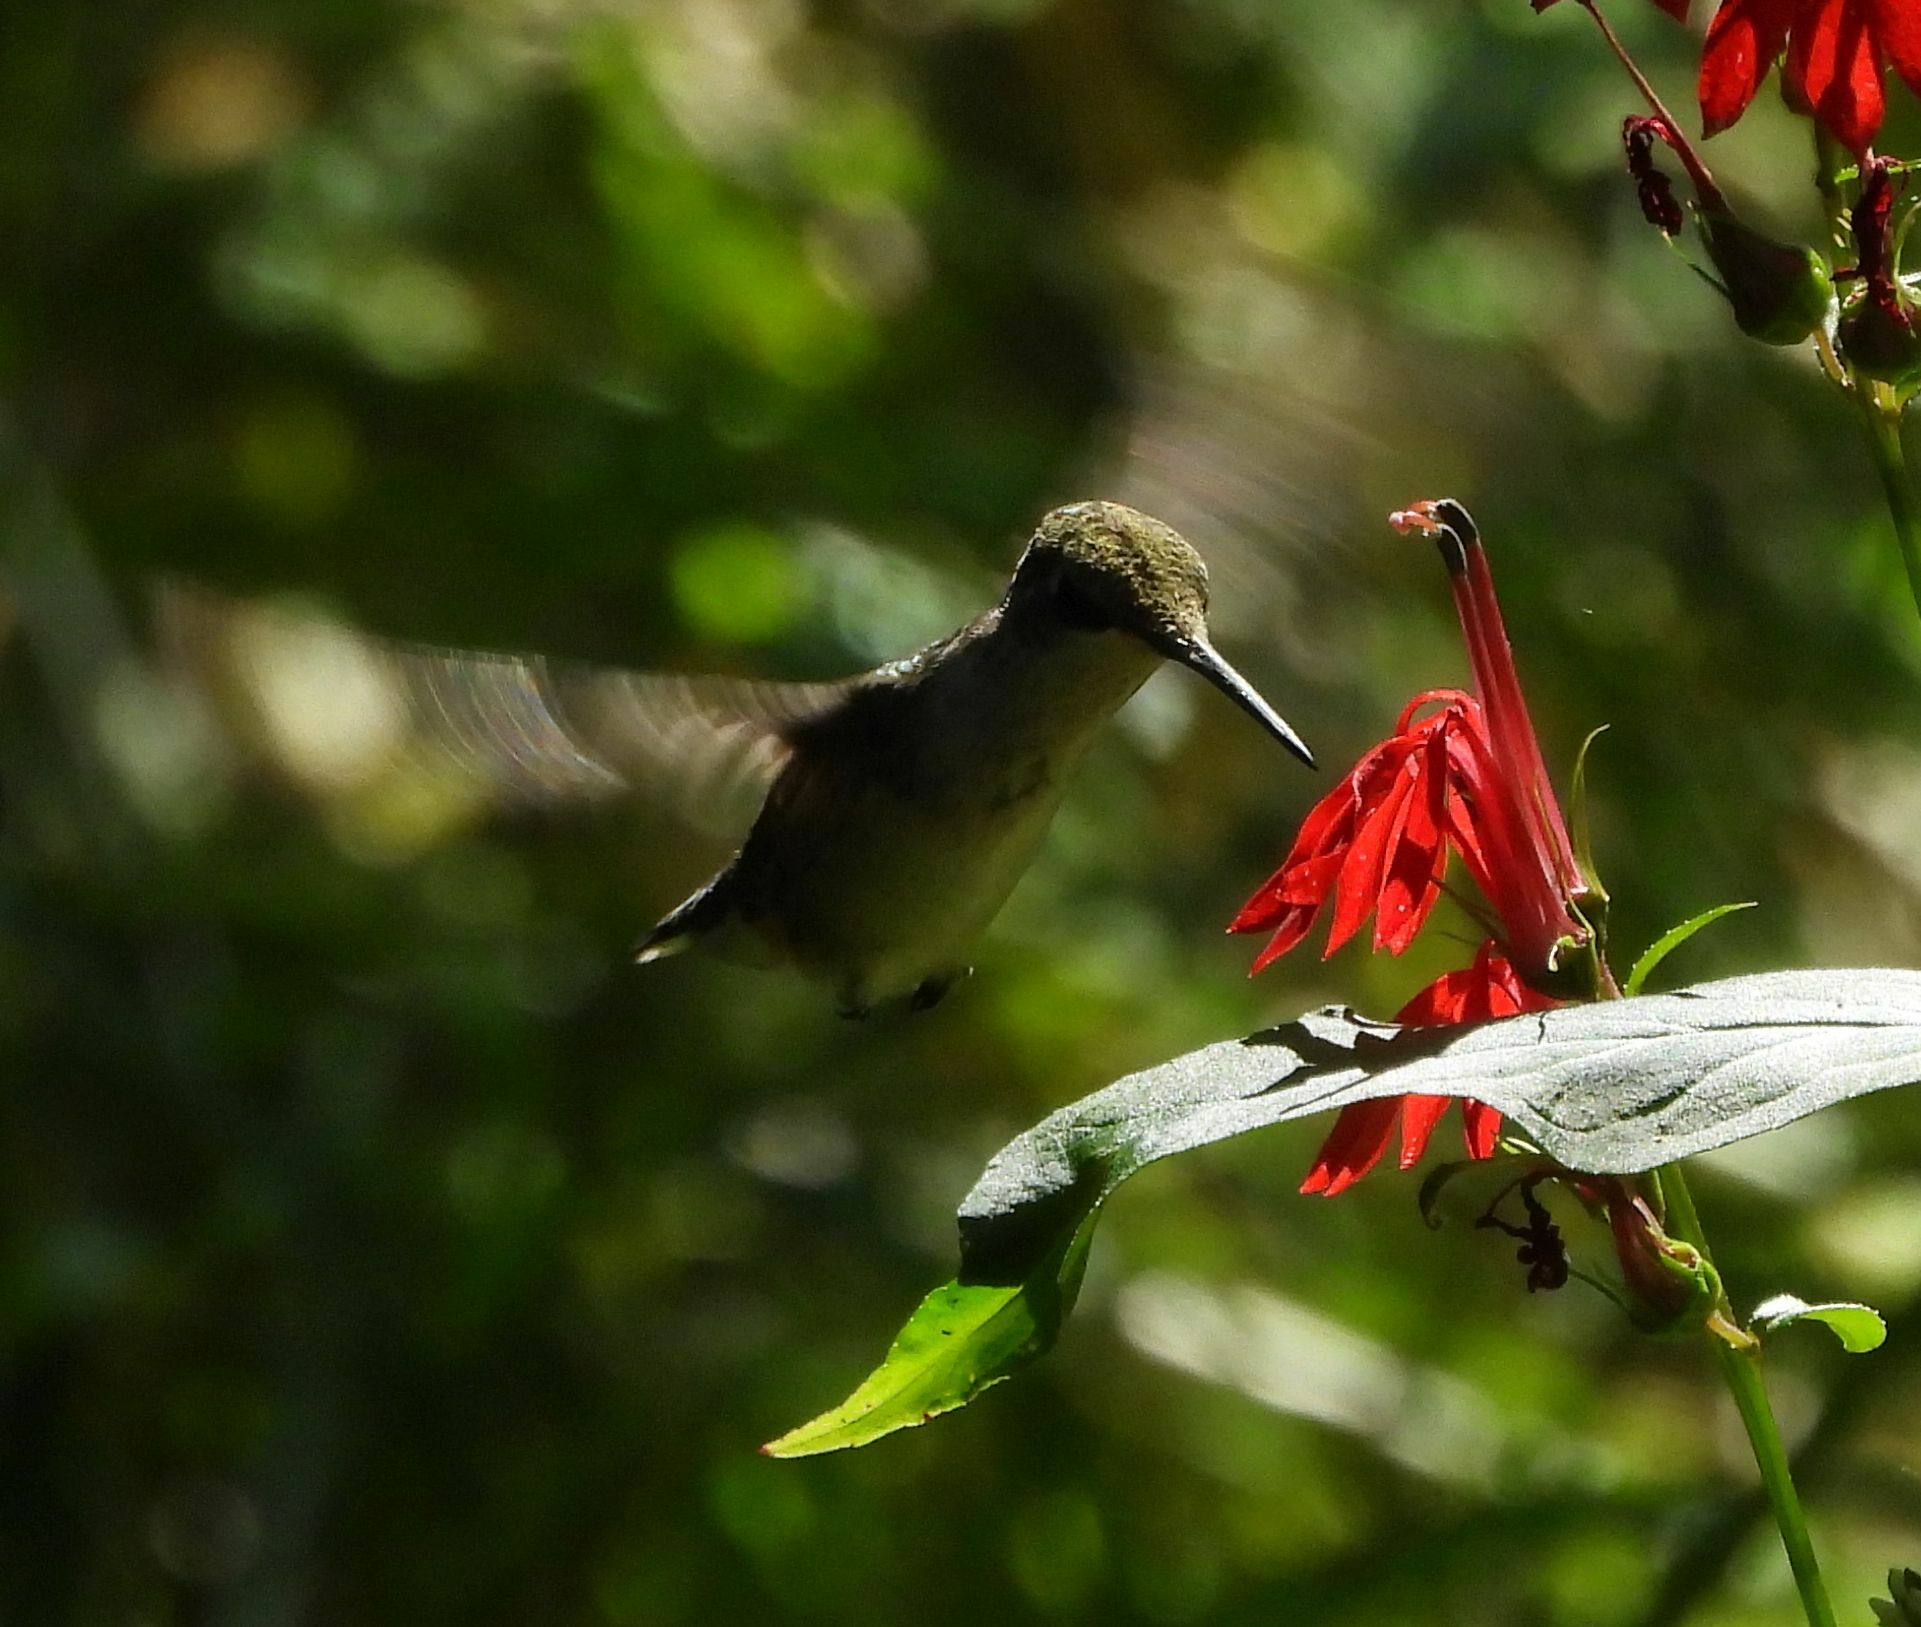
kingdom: Animalia
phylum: Chordata
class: Aves
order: Apodiformes
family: Trochilidae
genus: Archilochus
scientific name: Archilochus colubris
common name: Ruby-throated hummingbird
